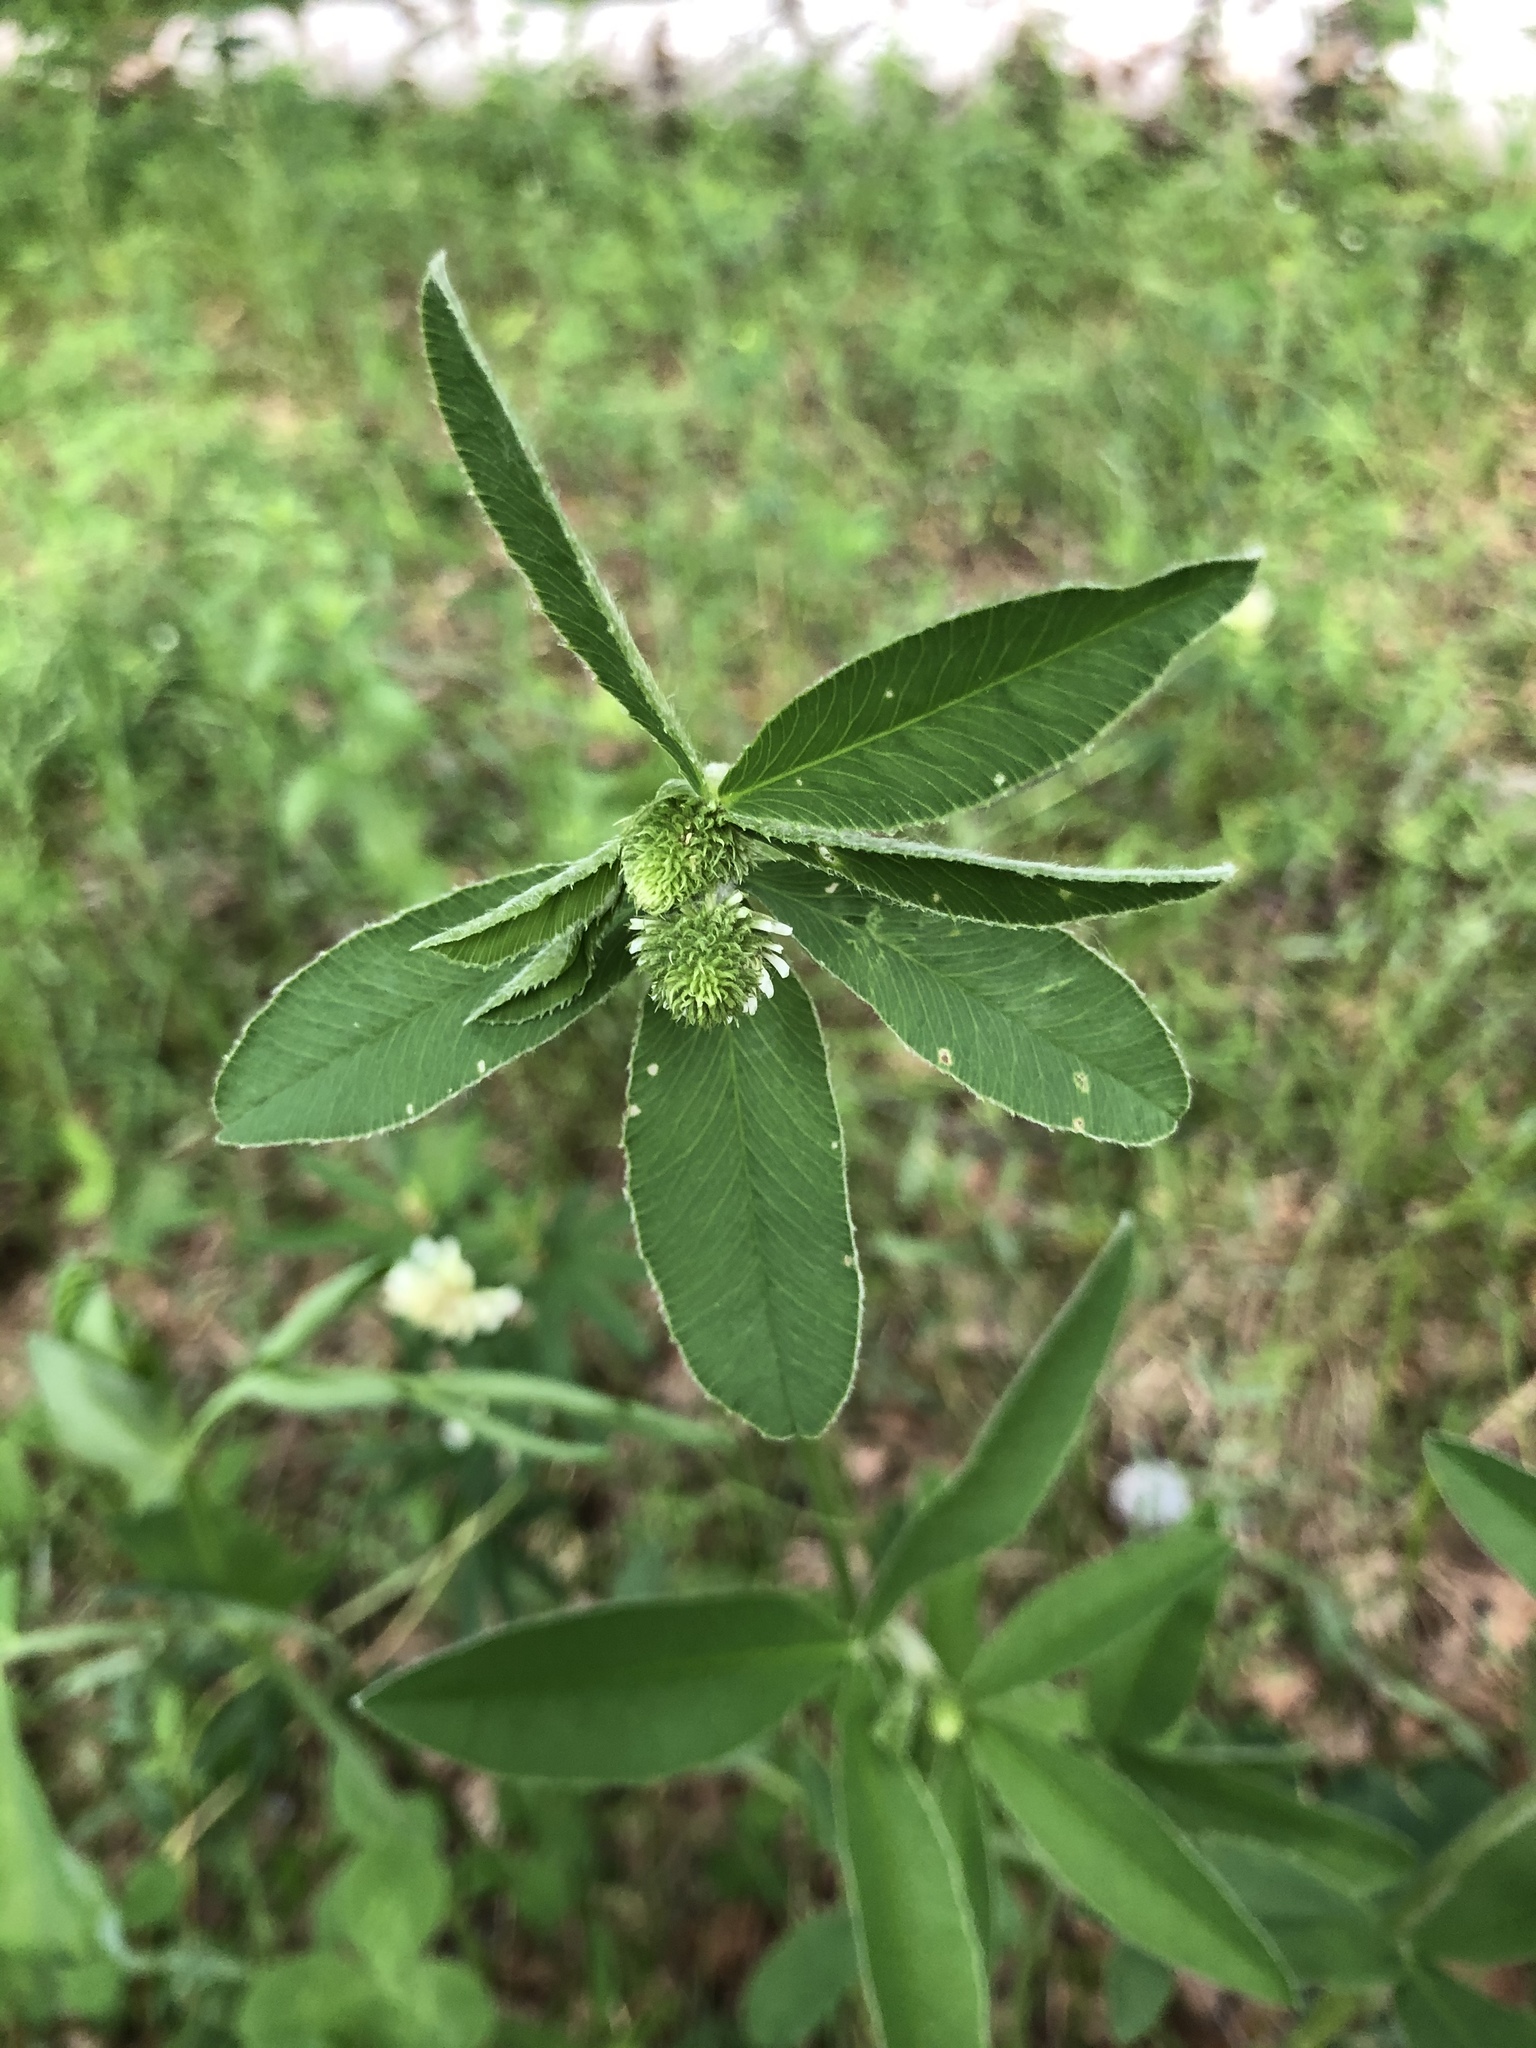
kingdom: Plantae
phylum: Tracheophyta
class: Magnoliopsida
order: Fabales
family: Fabaceae
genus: Trifolium
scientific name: Trifolium montanum
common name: Mountain clover
